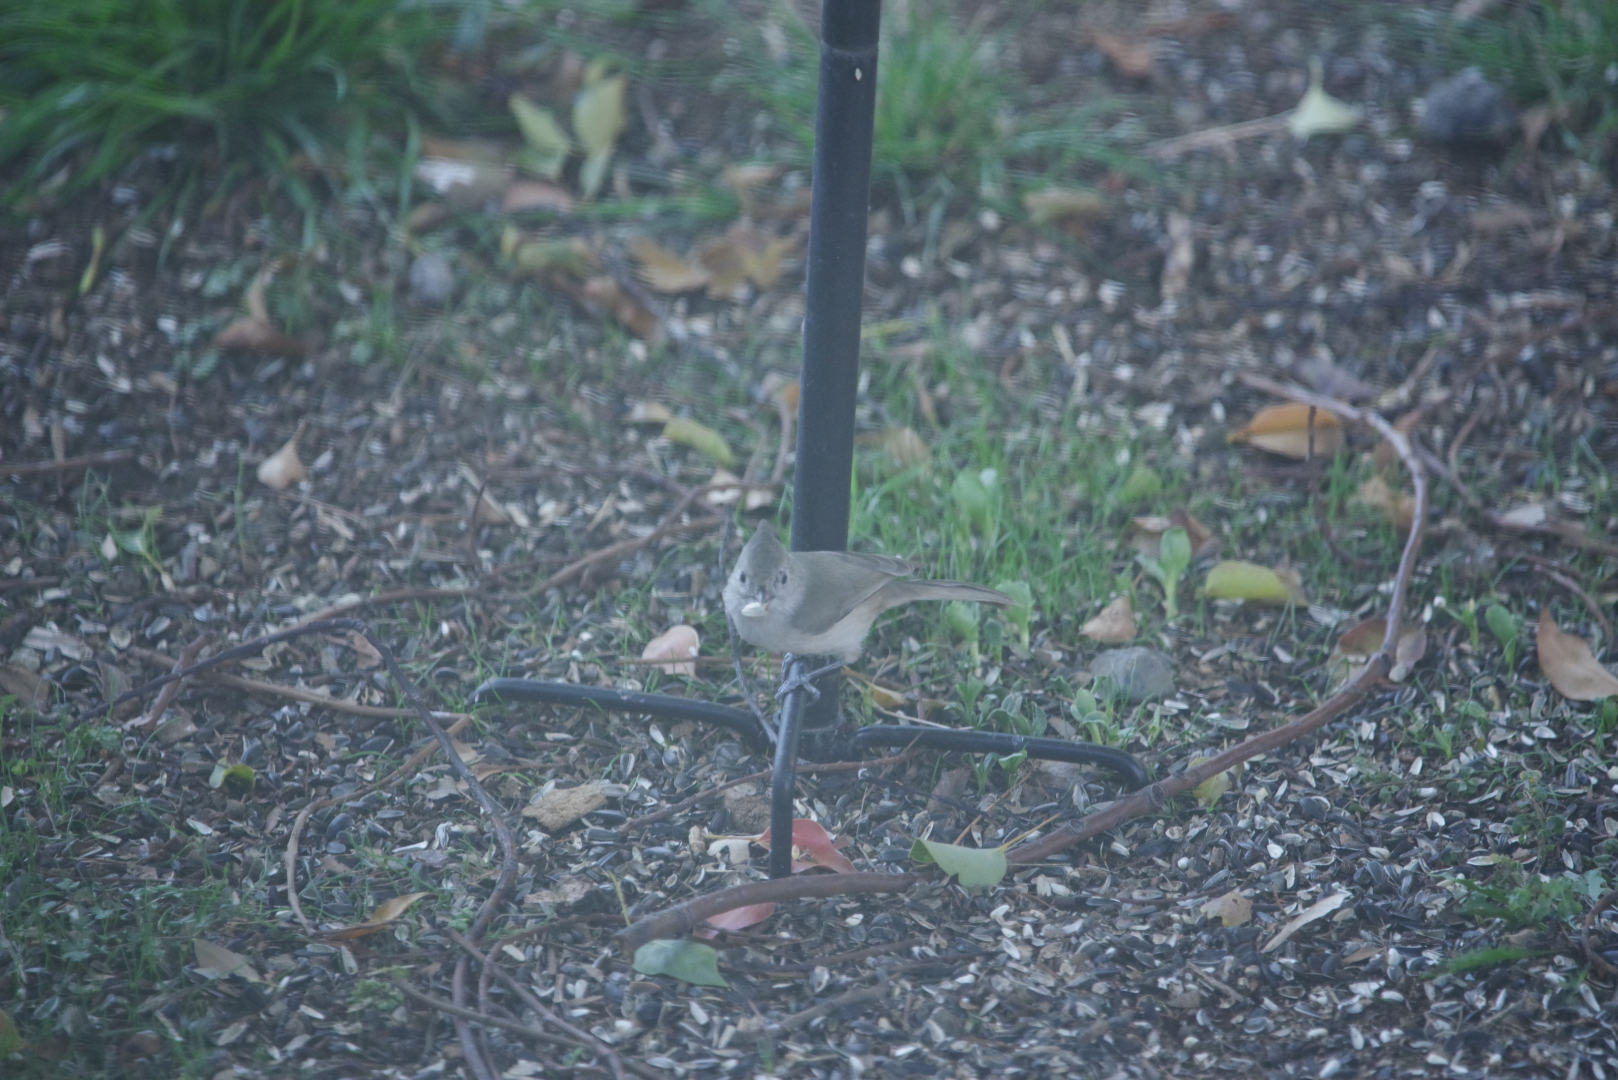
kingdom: Animalia
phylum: Chordata
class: Aves
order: Passeriformes
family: Paridae
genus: Baeolophus
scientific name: Baeolophus inornatus
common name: Oak titmouse
